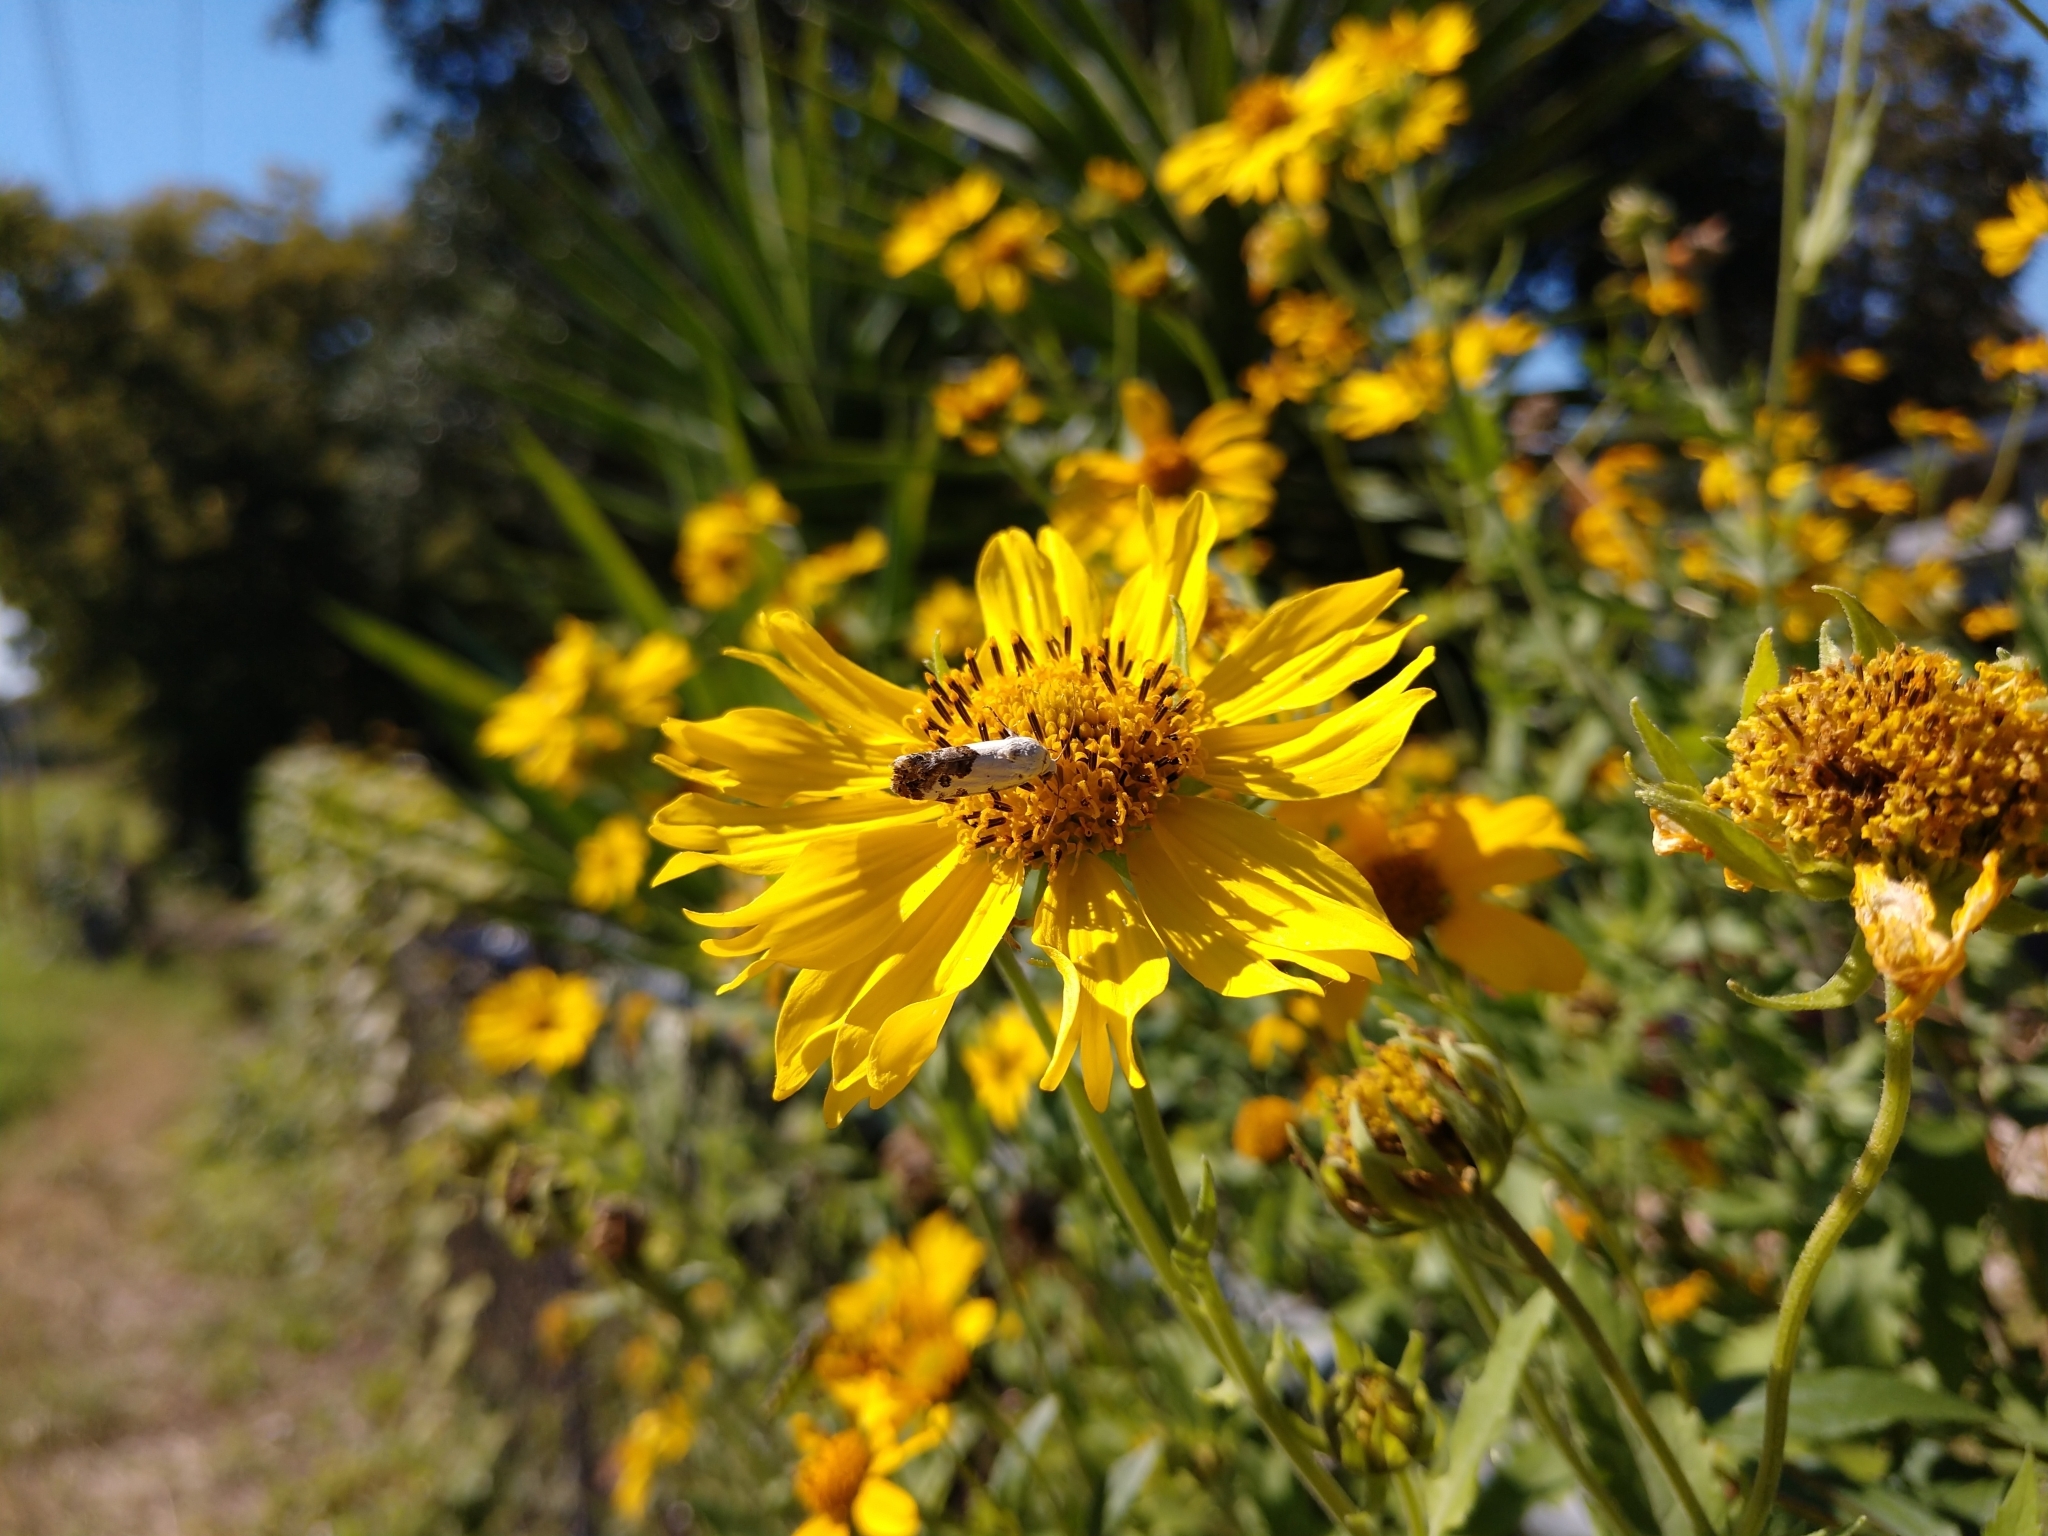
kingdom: Animalia
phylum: Arthropoda
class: Insecta
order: Lepidoptera
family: Noctuidae
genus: Acontia
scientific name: Acontia phecolisca
